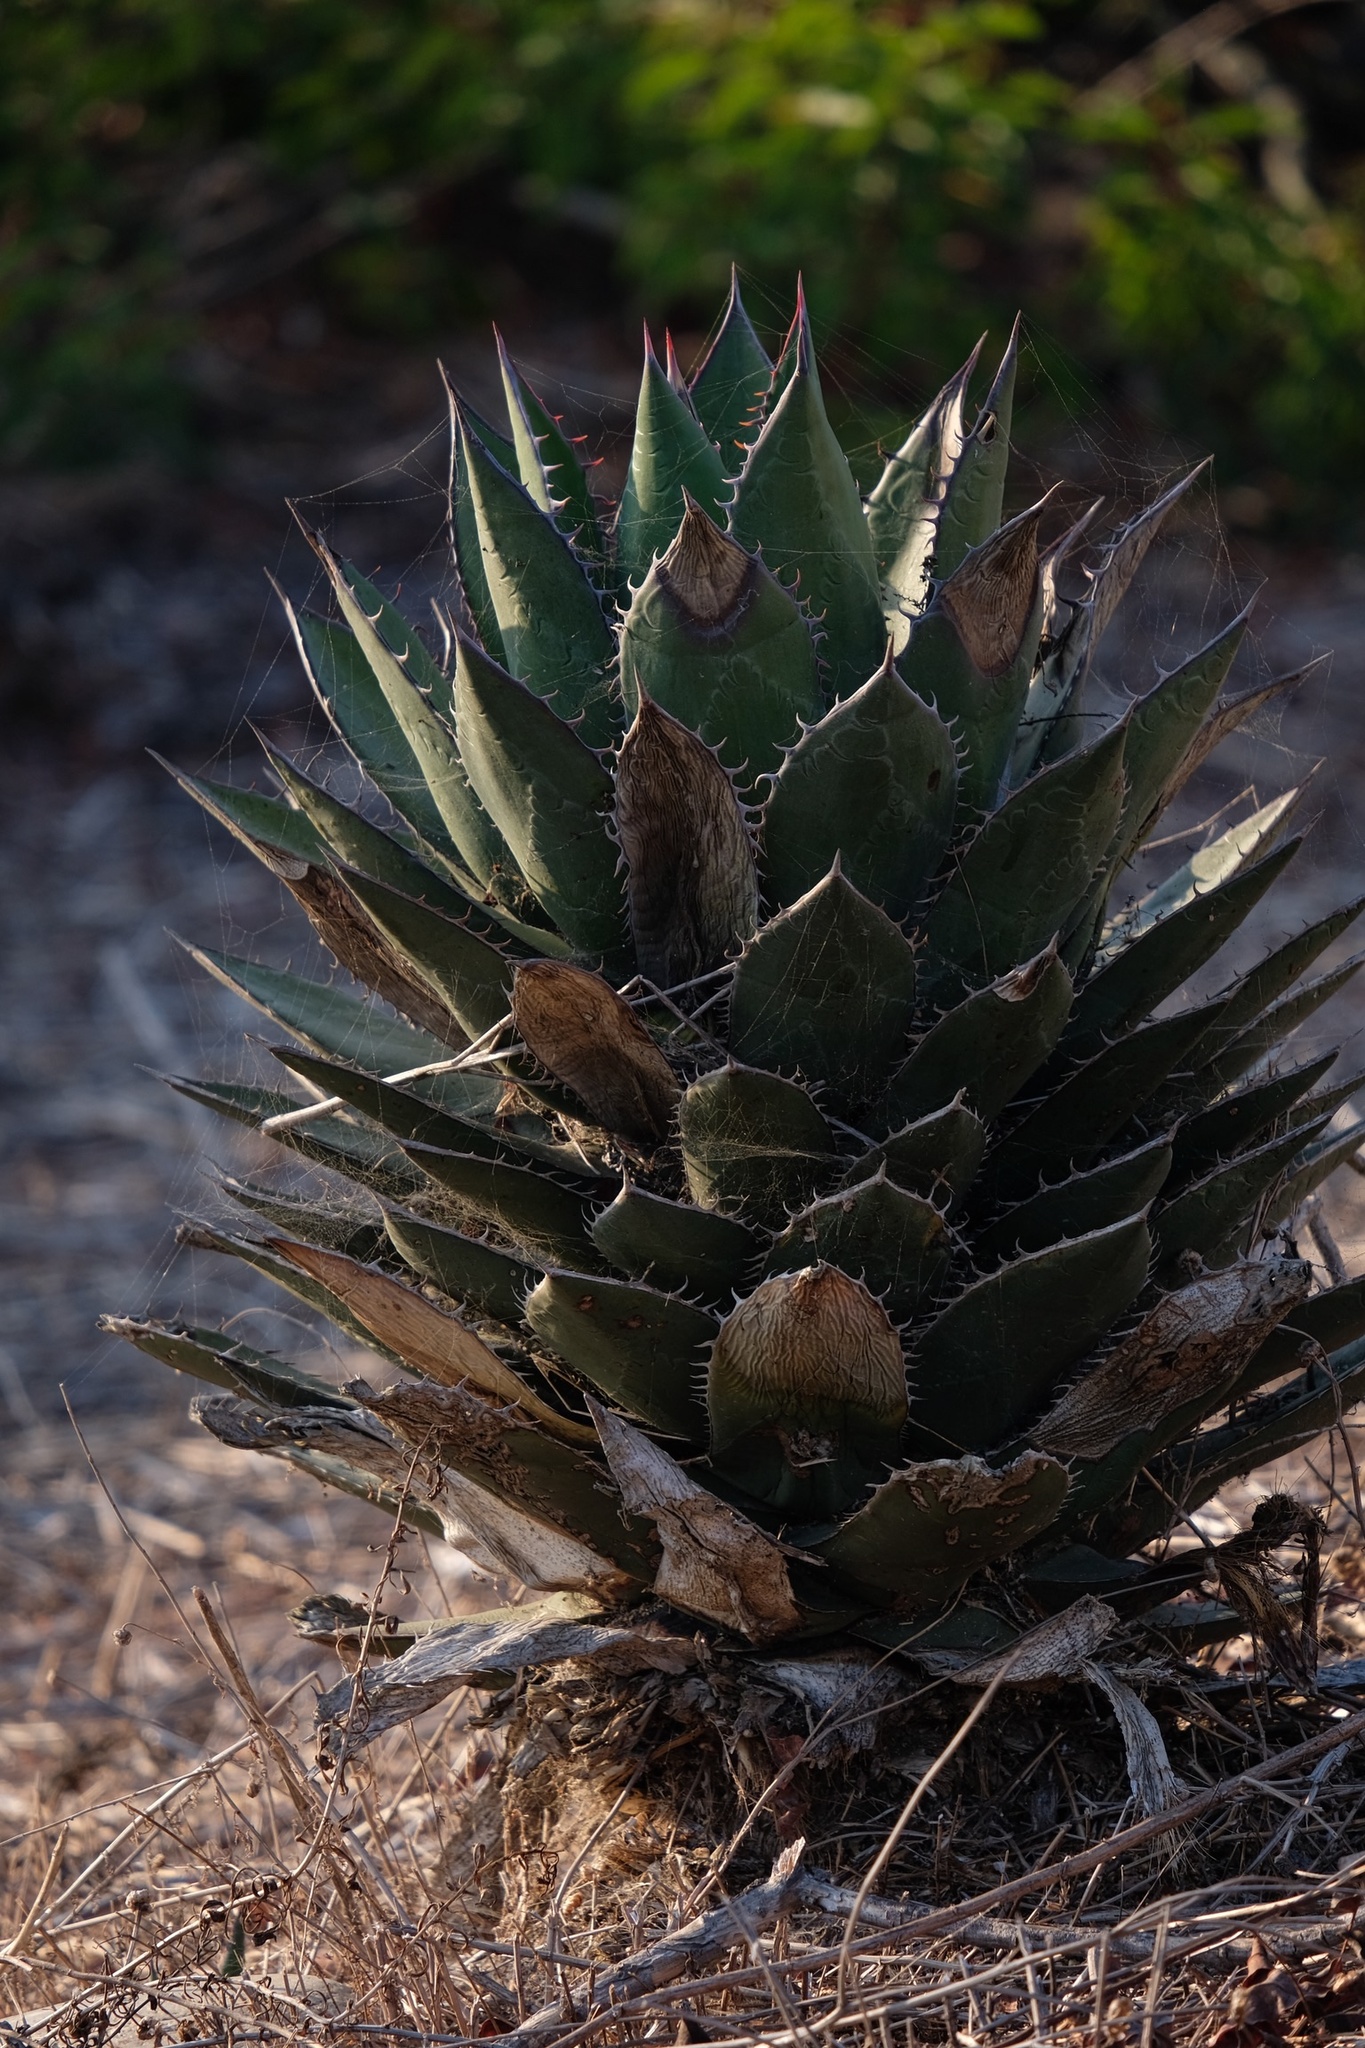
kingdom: Plantae
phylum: Tracheophyta
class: Liliopsida
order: Asparagales
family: Asparagaceae
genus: Agave
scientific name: Agave shawii
